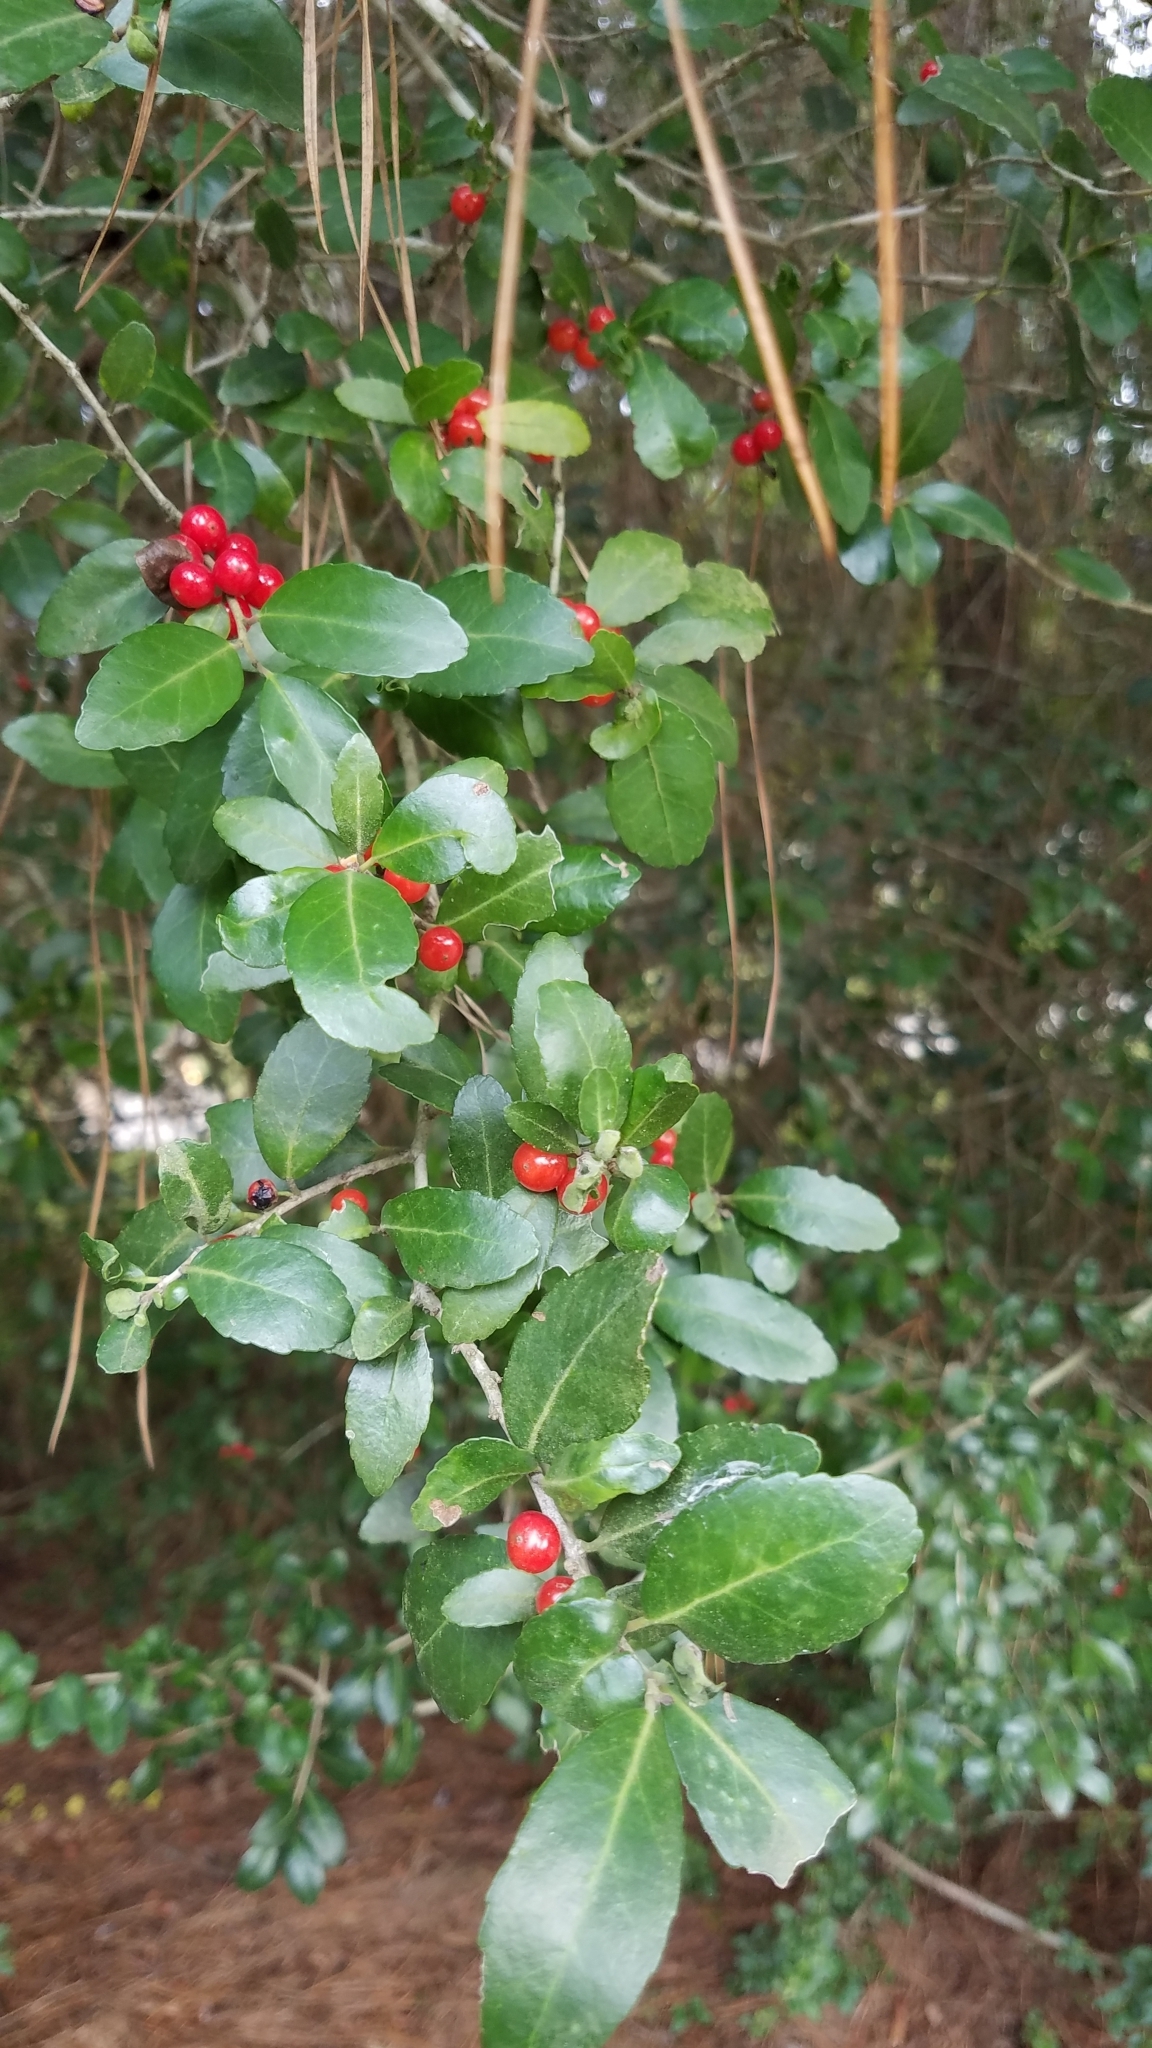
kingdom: Plantae
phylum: Tracheophyta
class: Magnoliopsida
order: Aquifoliales
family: Aquifoliaceae
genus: Ilex
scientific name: Ilex vomitoria
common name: Yaupon holly
